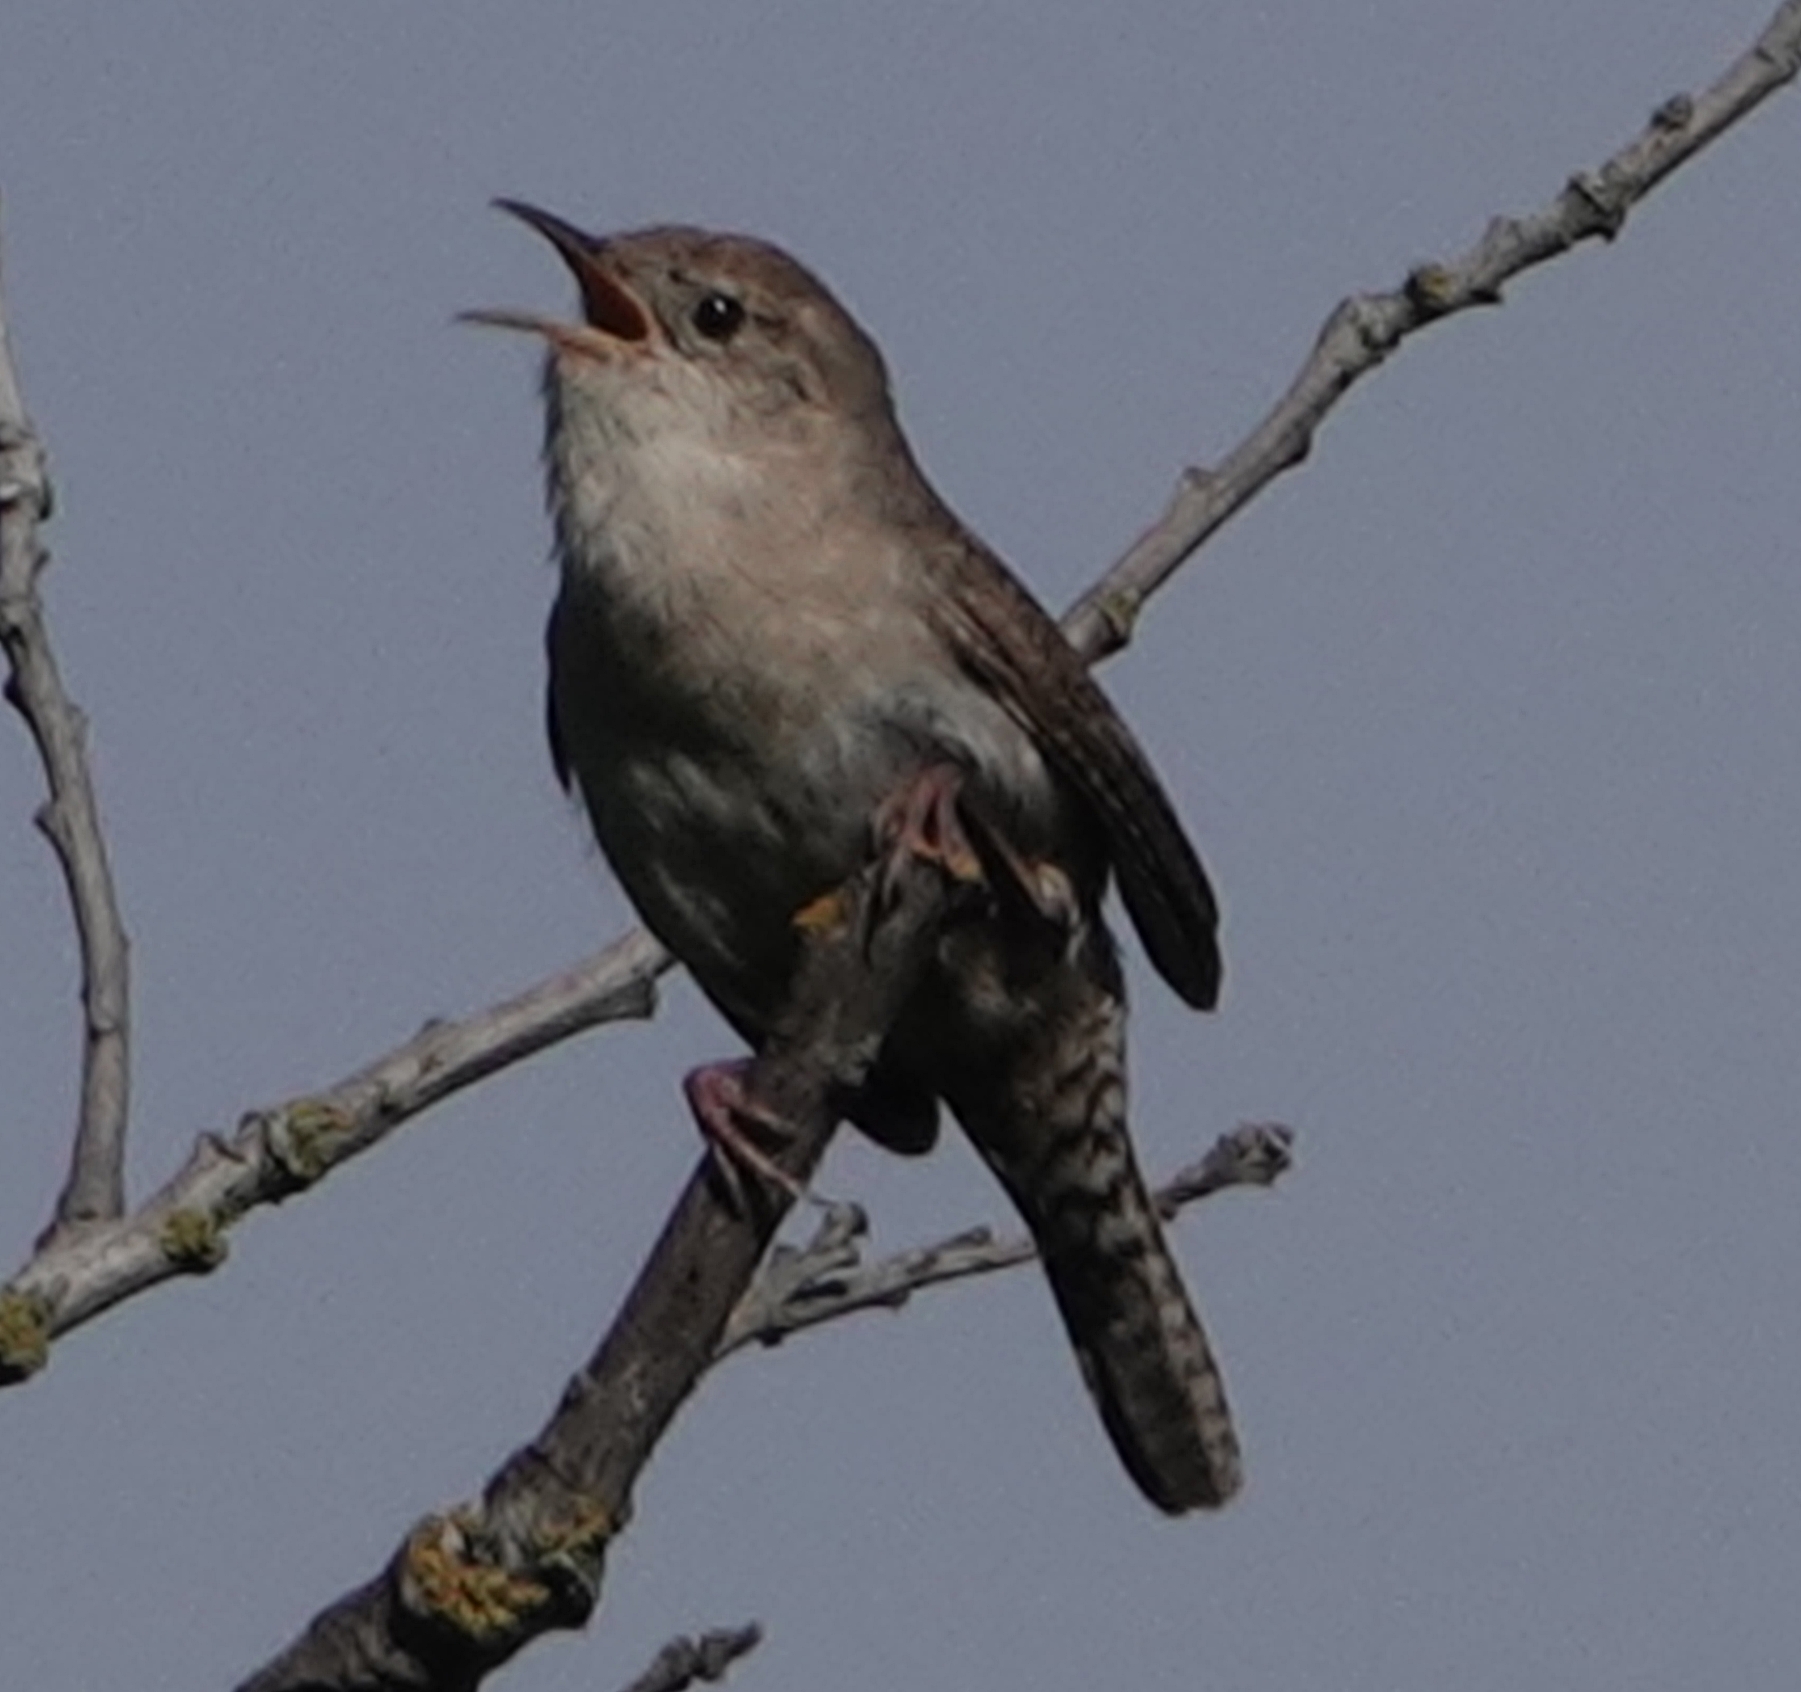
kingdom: Animalia
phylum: Chordata
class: Aves
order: Passeriformes
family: Troglodytidae
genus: Troglodytes
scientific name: Troglodytes aedon
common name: House wren
